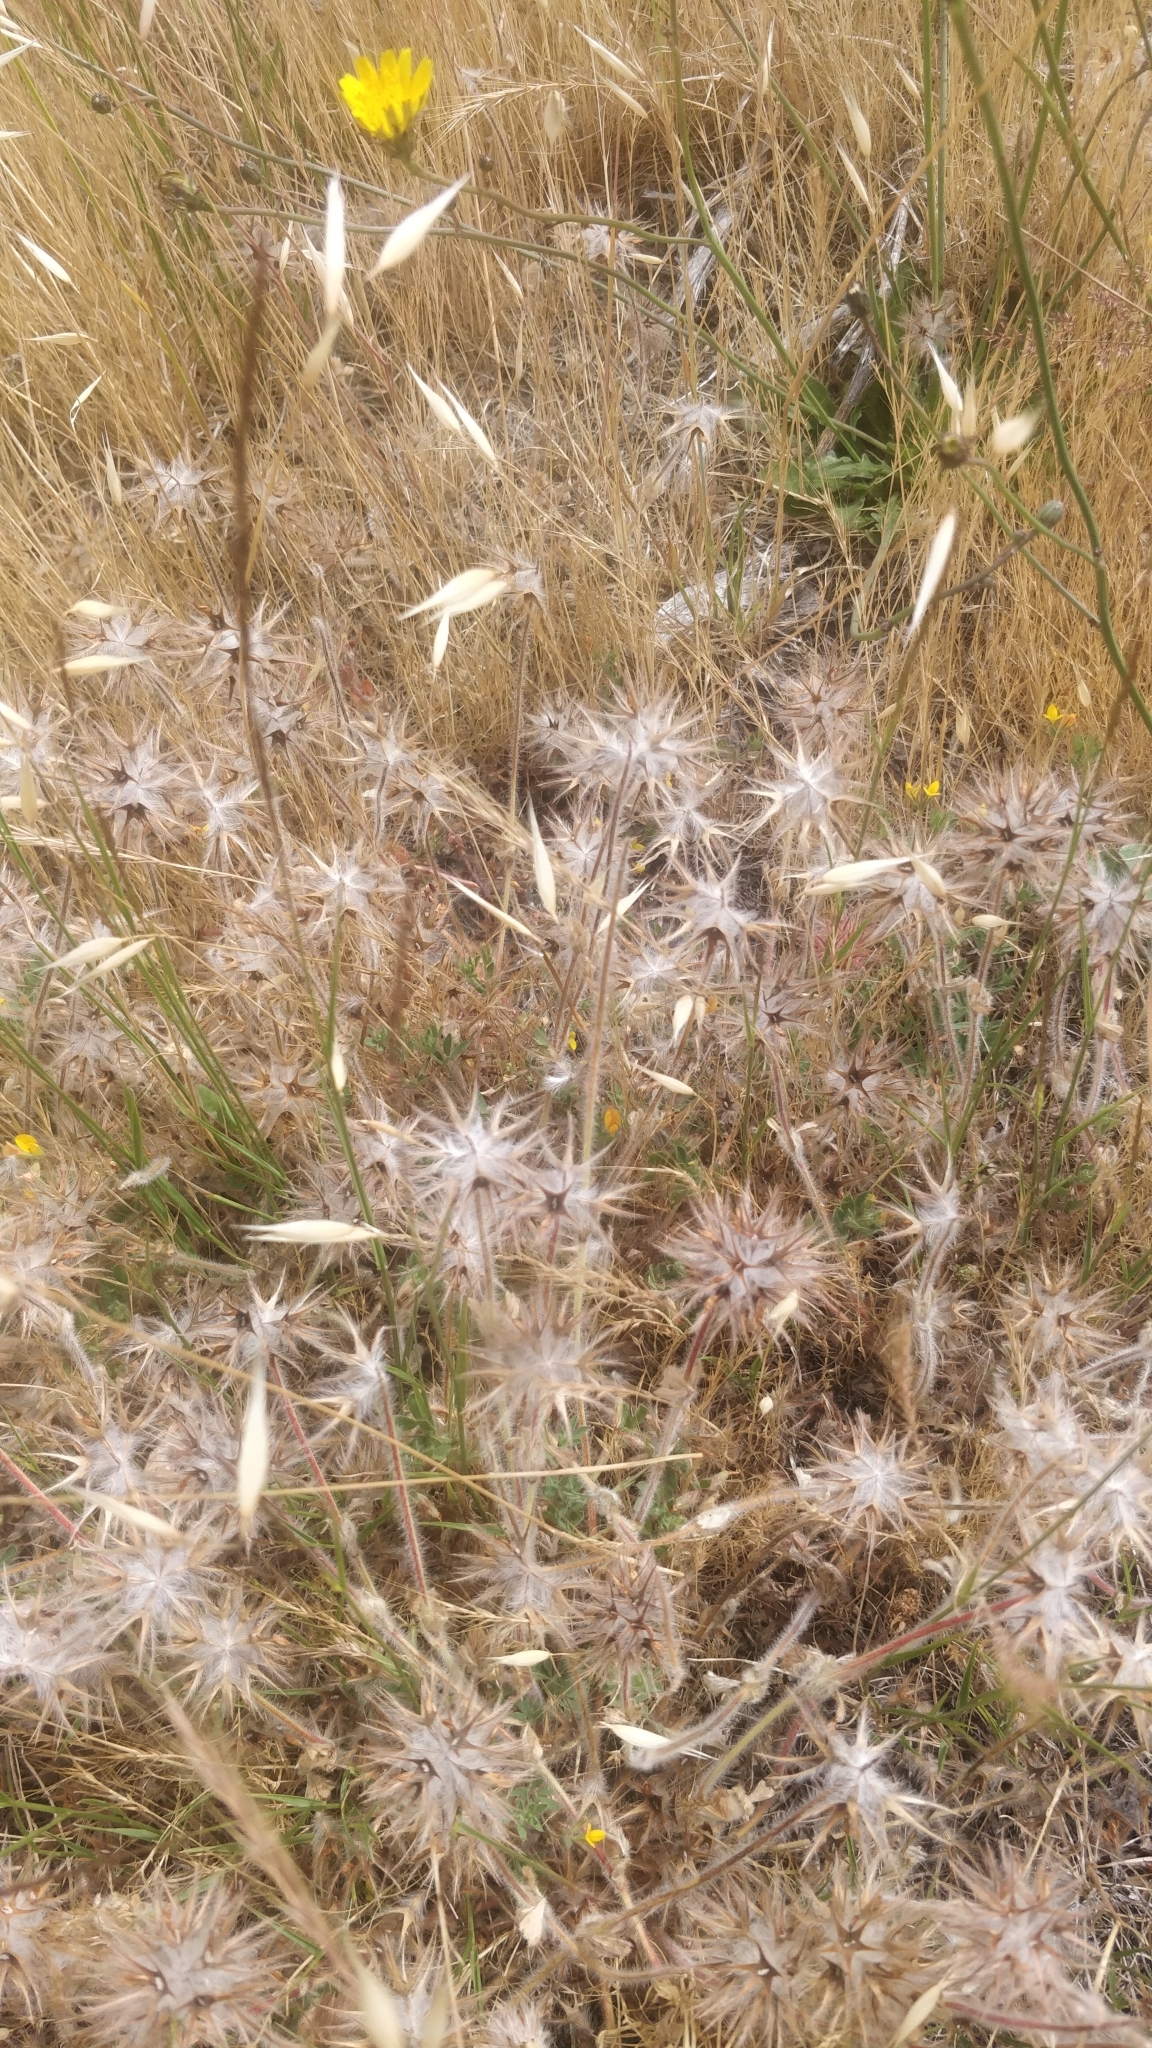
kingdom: Plantae
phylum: Tracheophyta
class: Magnoliopsida
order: Fabales
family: Fabaceae
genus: Trifolium
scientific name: Trifolium stellatum
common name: Starry clover
